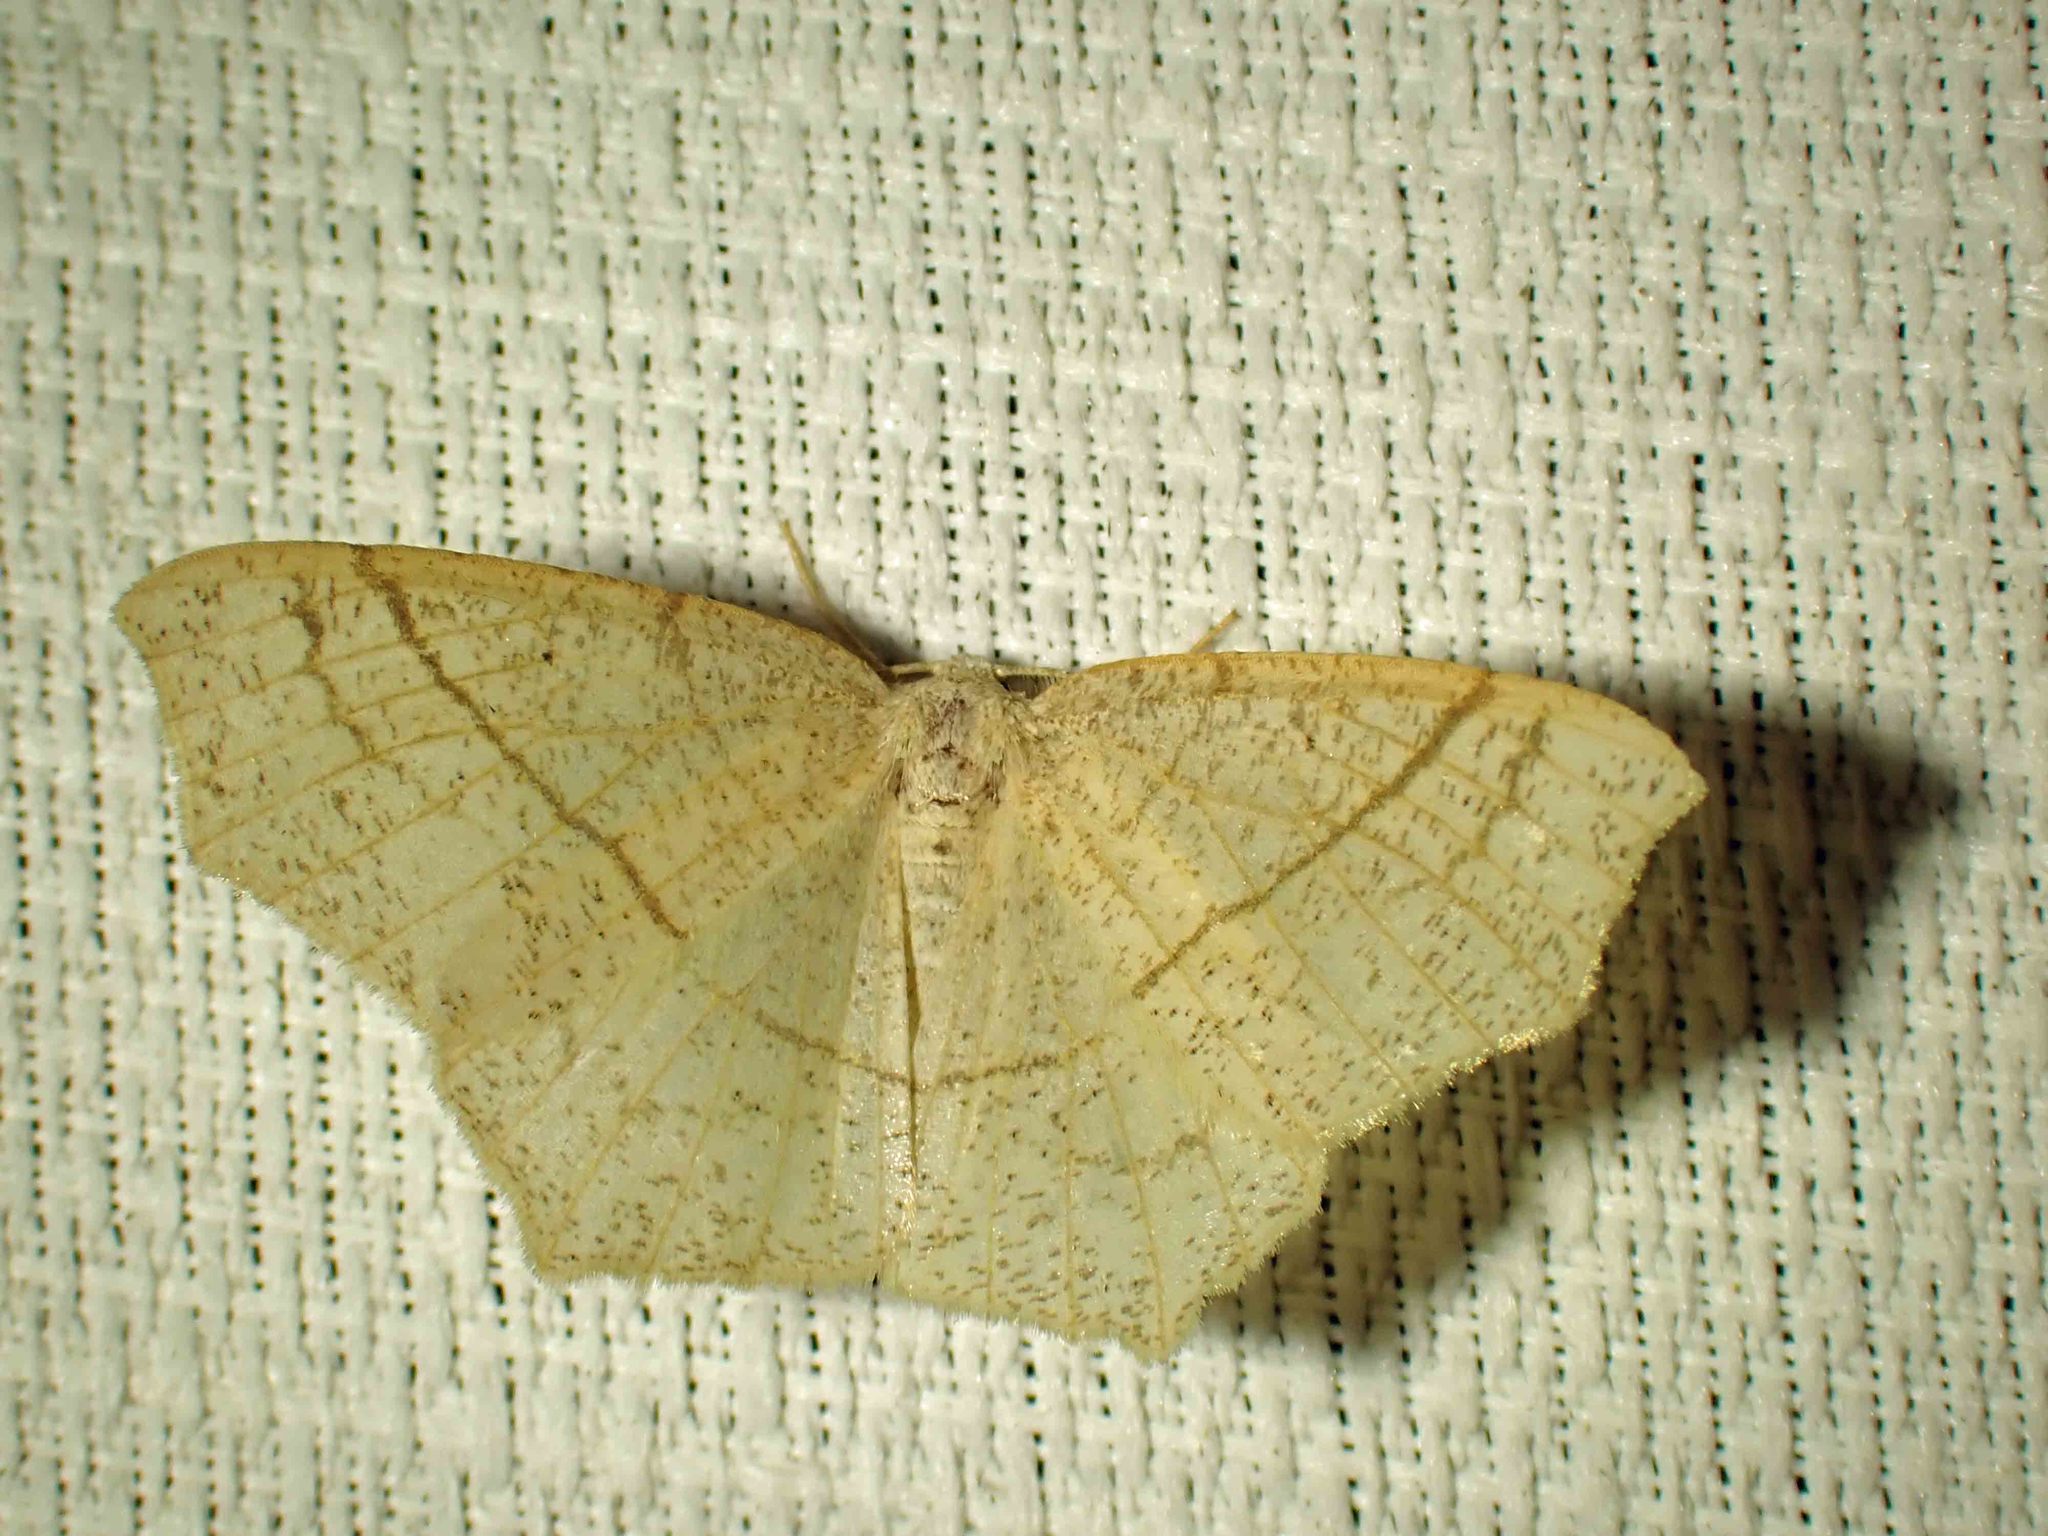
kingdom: Animalia
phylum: Arthropoda
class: Insecta
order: Lepidoptera
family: Geometridae
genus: Besma
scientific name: Besma quercivoraria
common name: Oak besma
